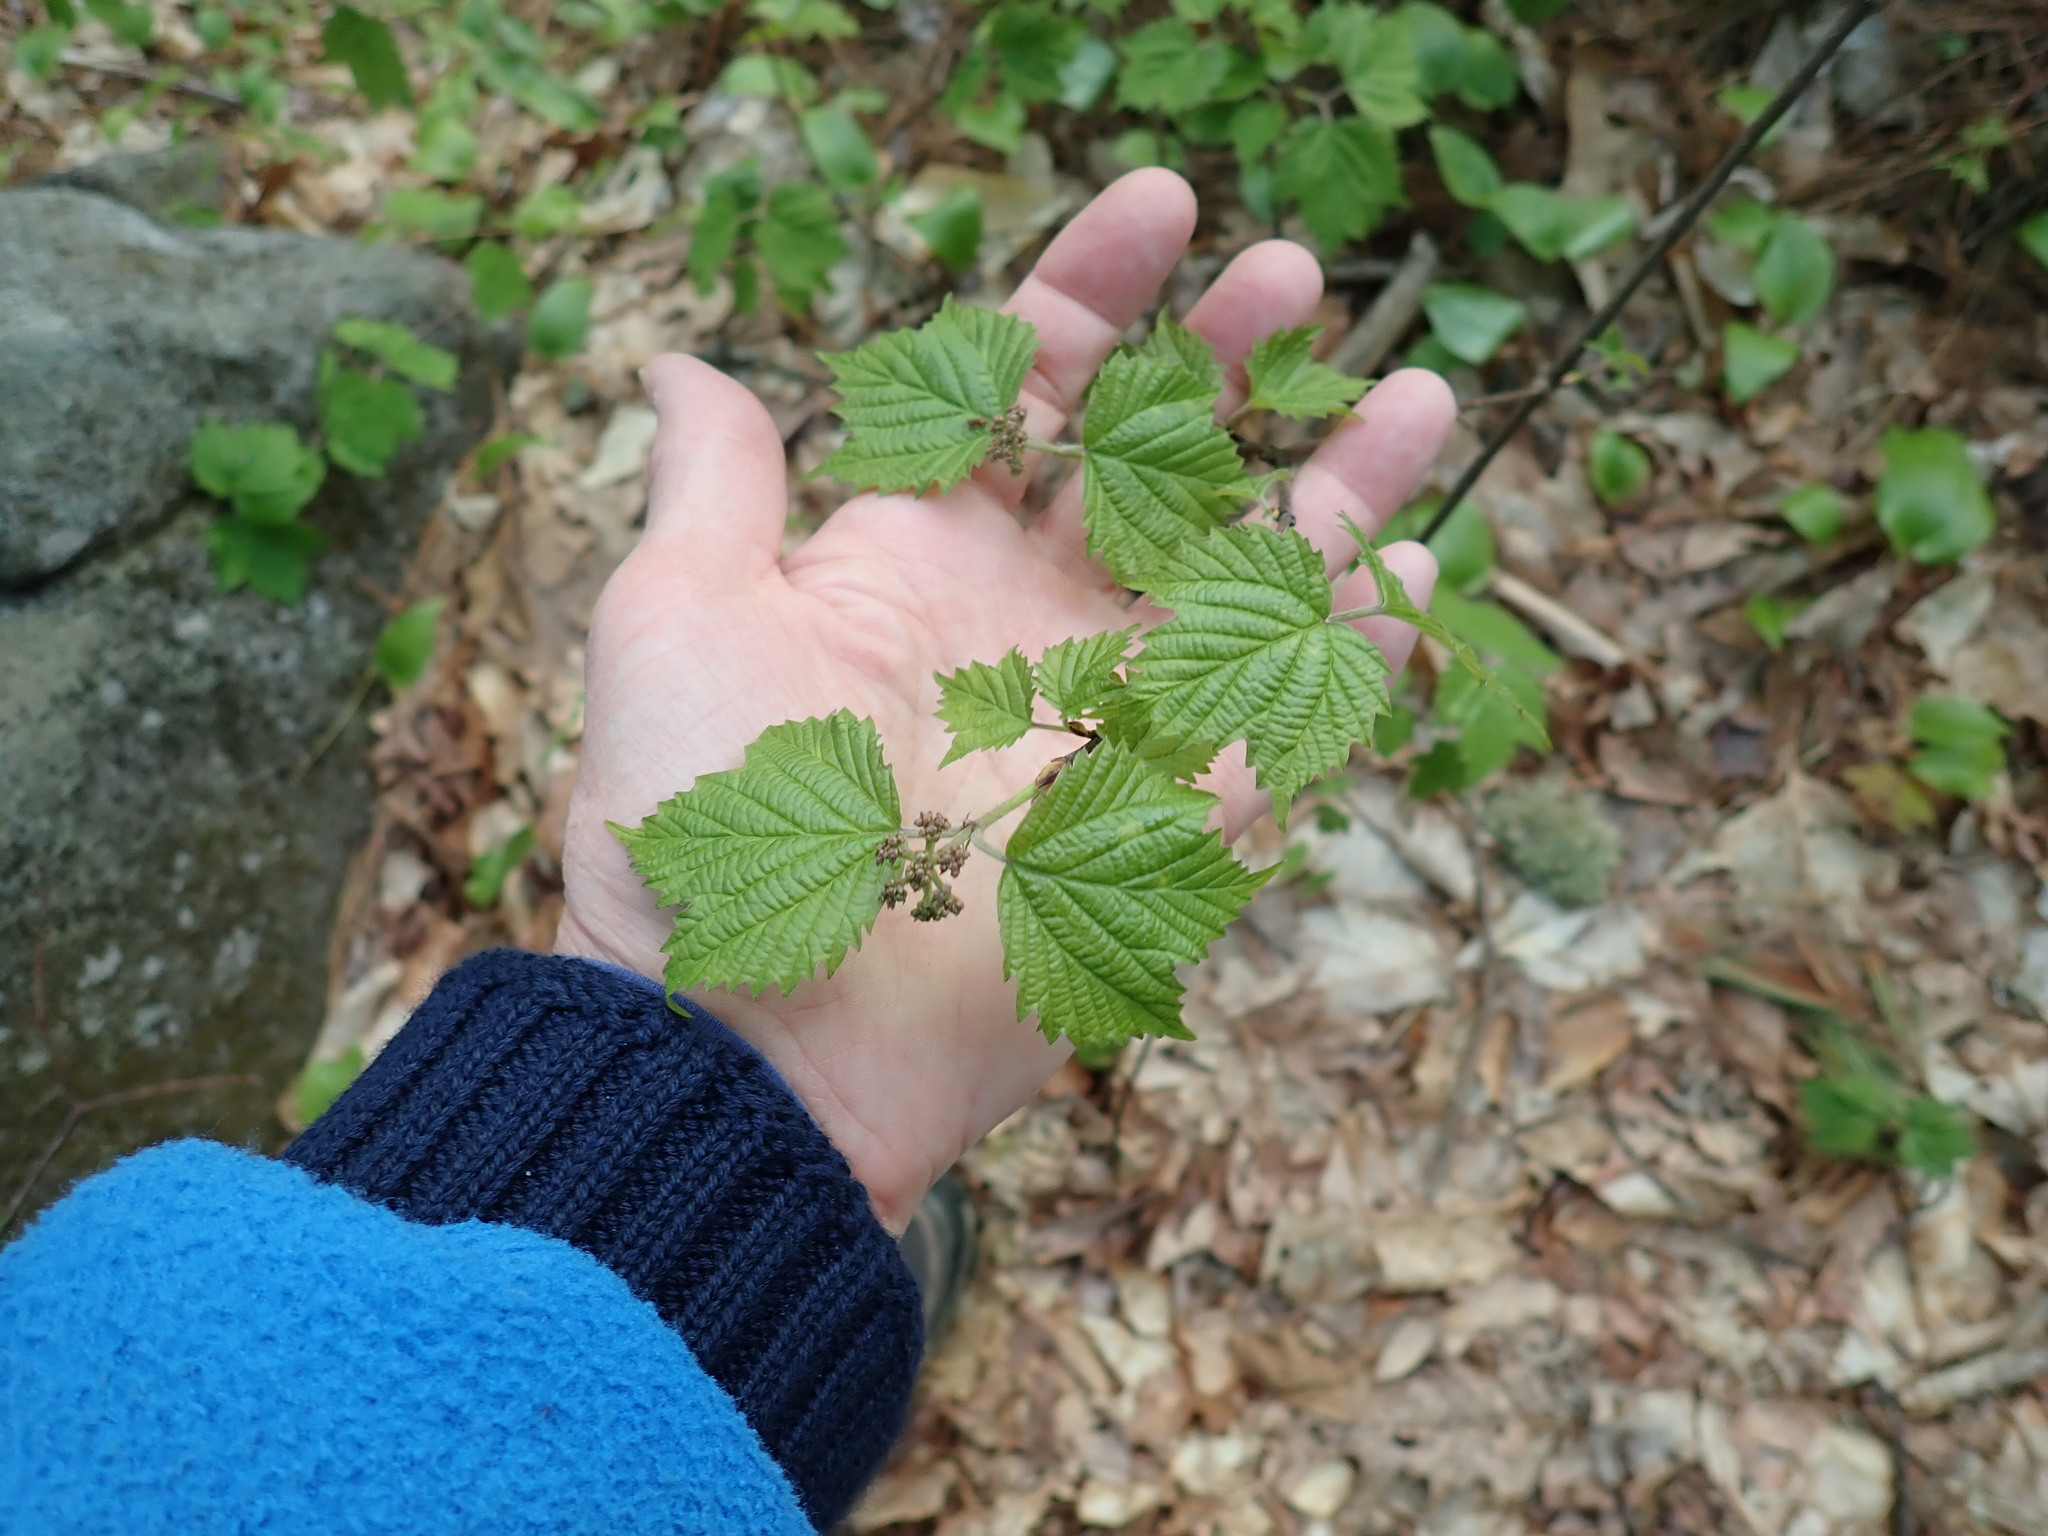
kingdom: Plantae
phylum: Tracheophyta
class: Magnoliopsida
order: Dipsacales
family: Viburnaceae
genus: Viburnum
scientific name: Viburnum acerifolium
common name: Dockmackie
